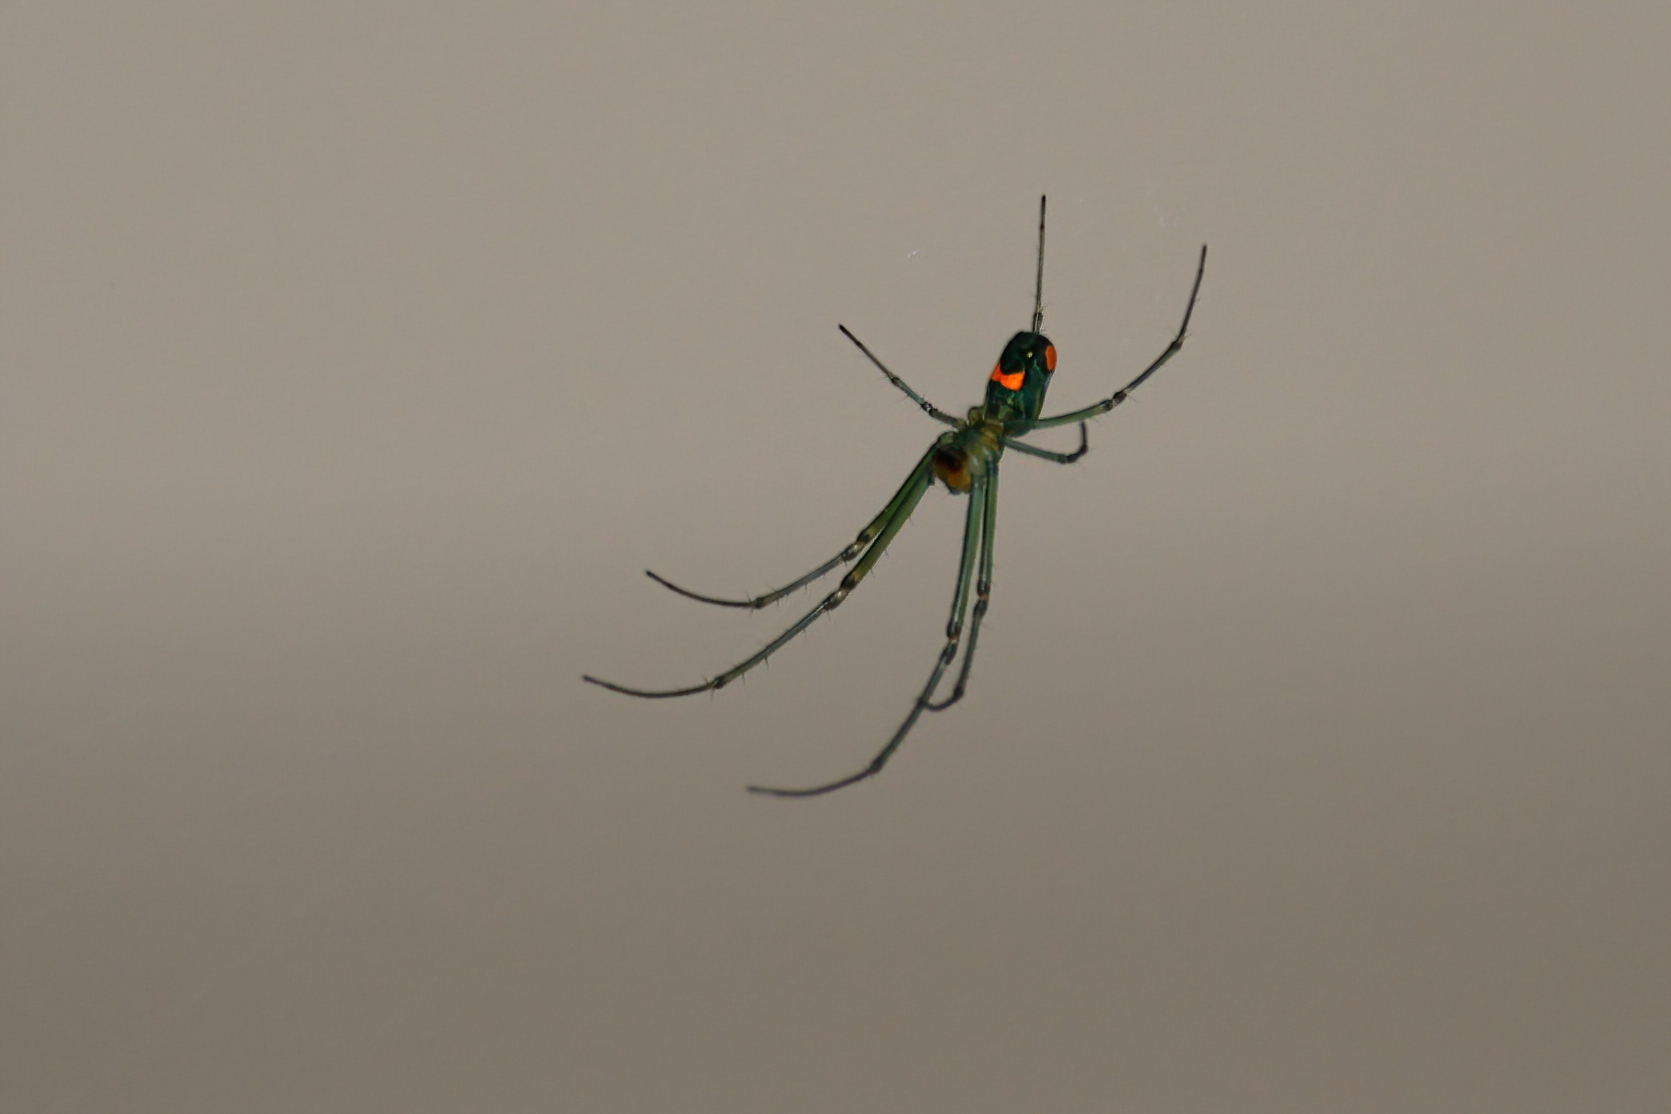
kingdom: Animalia
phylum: Arthropoda
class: Arachnida
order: Araneae
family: Tetragnathidae
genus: Leucauge
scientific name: Leucauge argyrobapta
